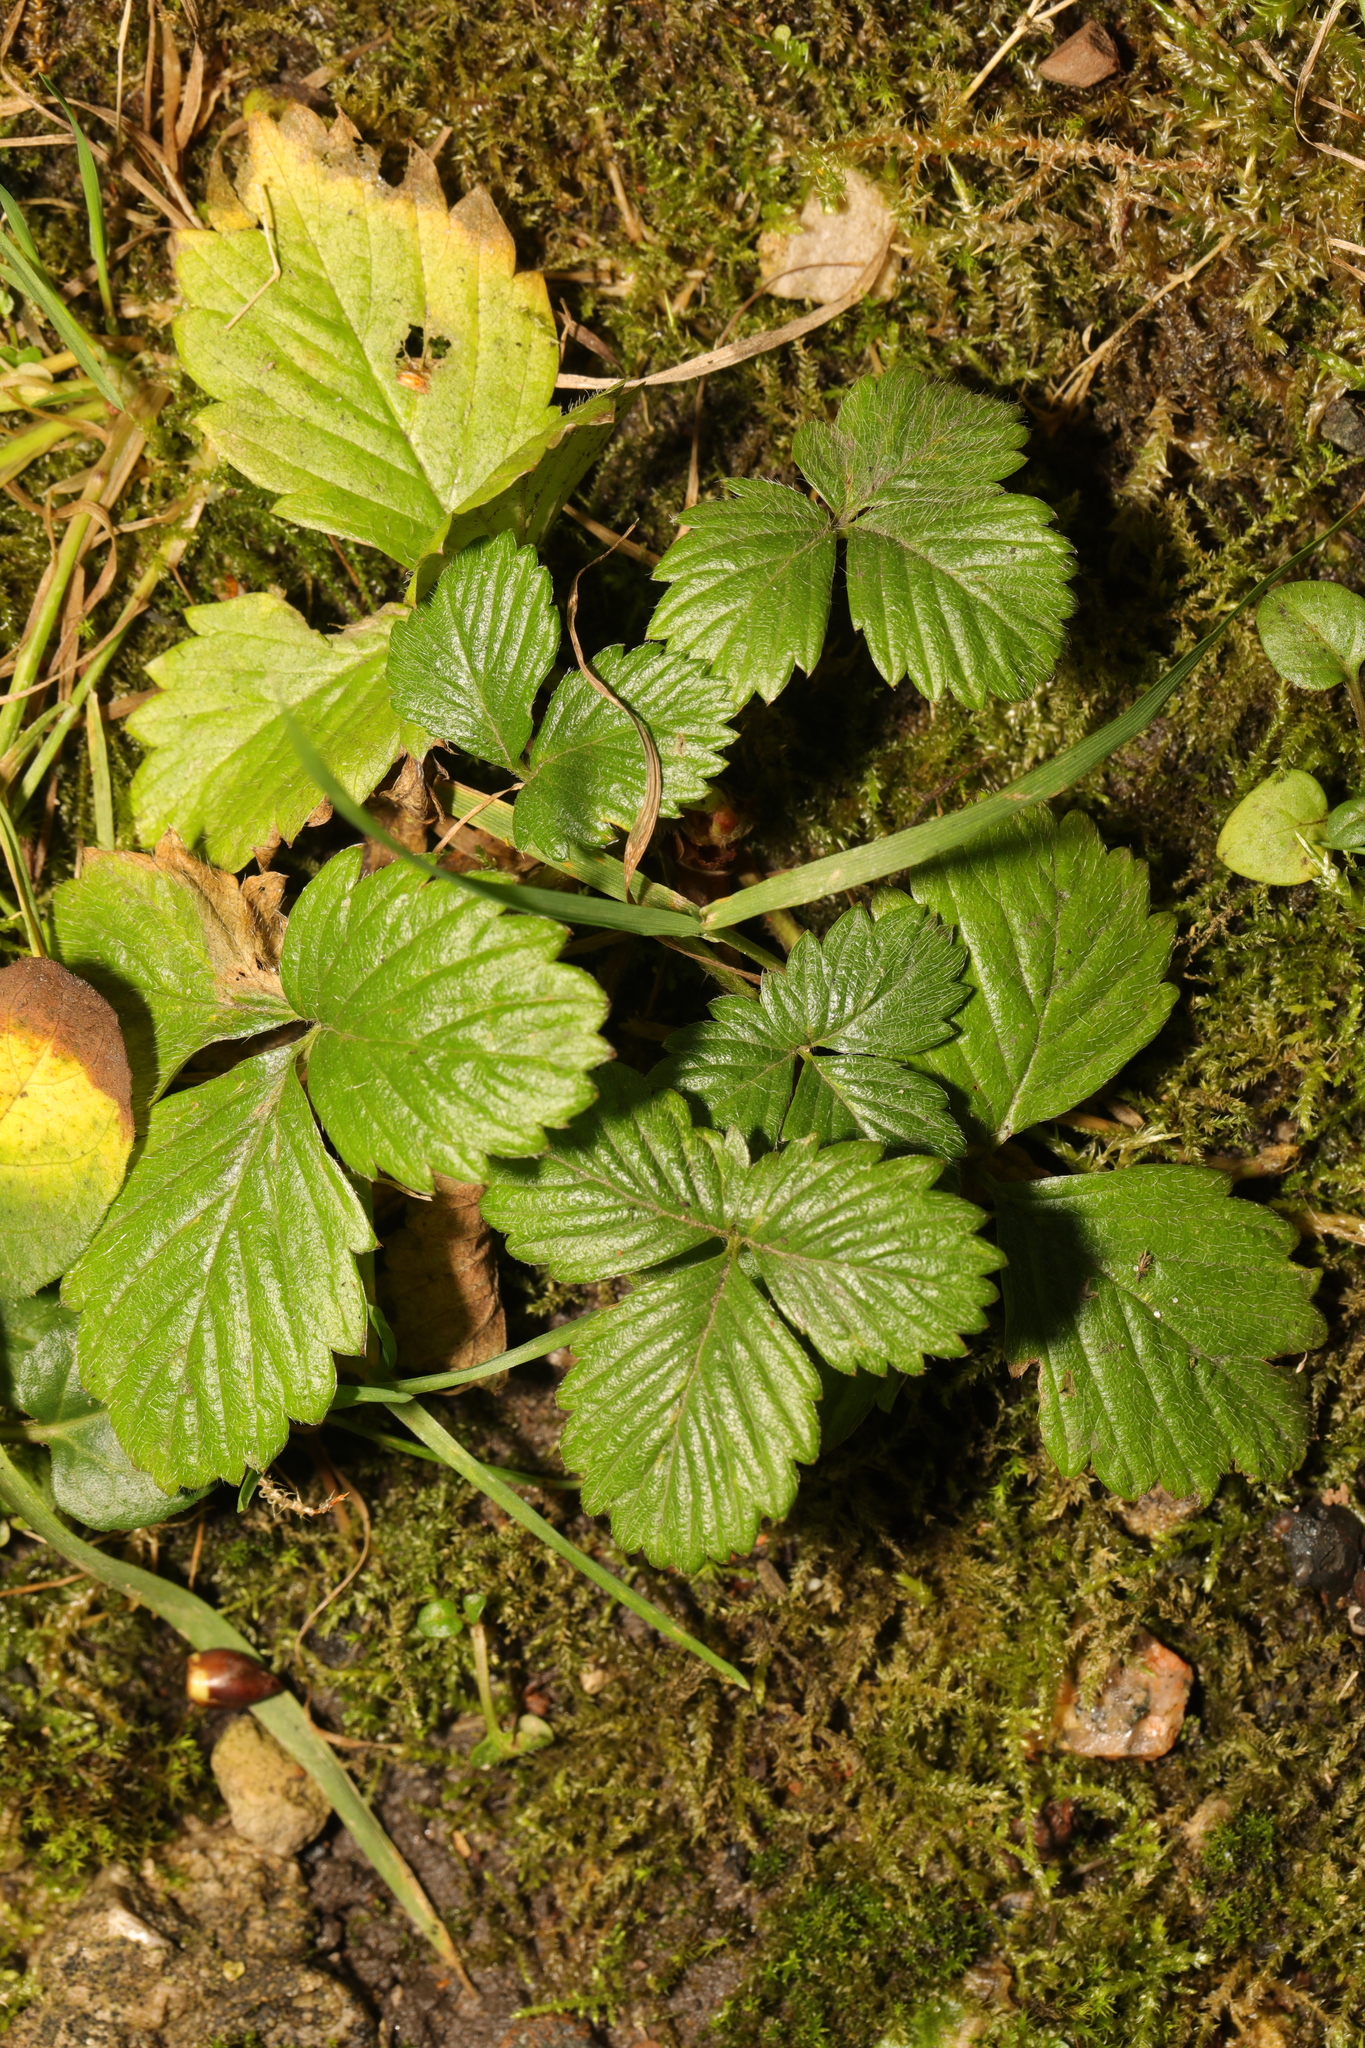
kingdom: Plantae
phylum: Tracheophyta
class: Magnoliopsida
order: Rosales
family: Rosaceae
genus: Fragaria
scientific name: Fragaria vesca
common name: Wild strawberry
